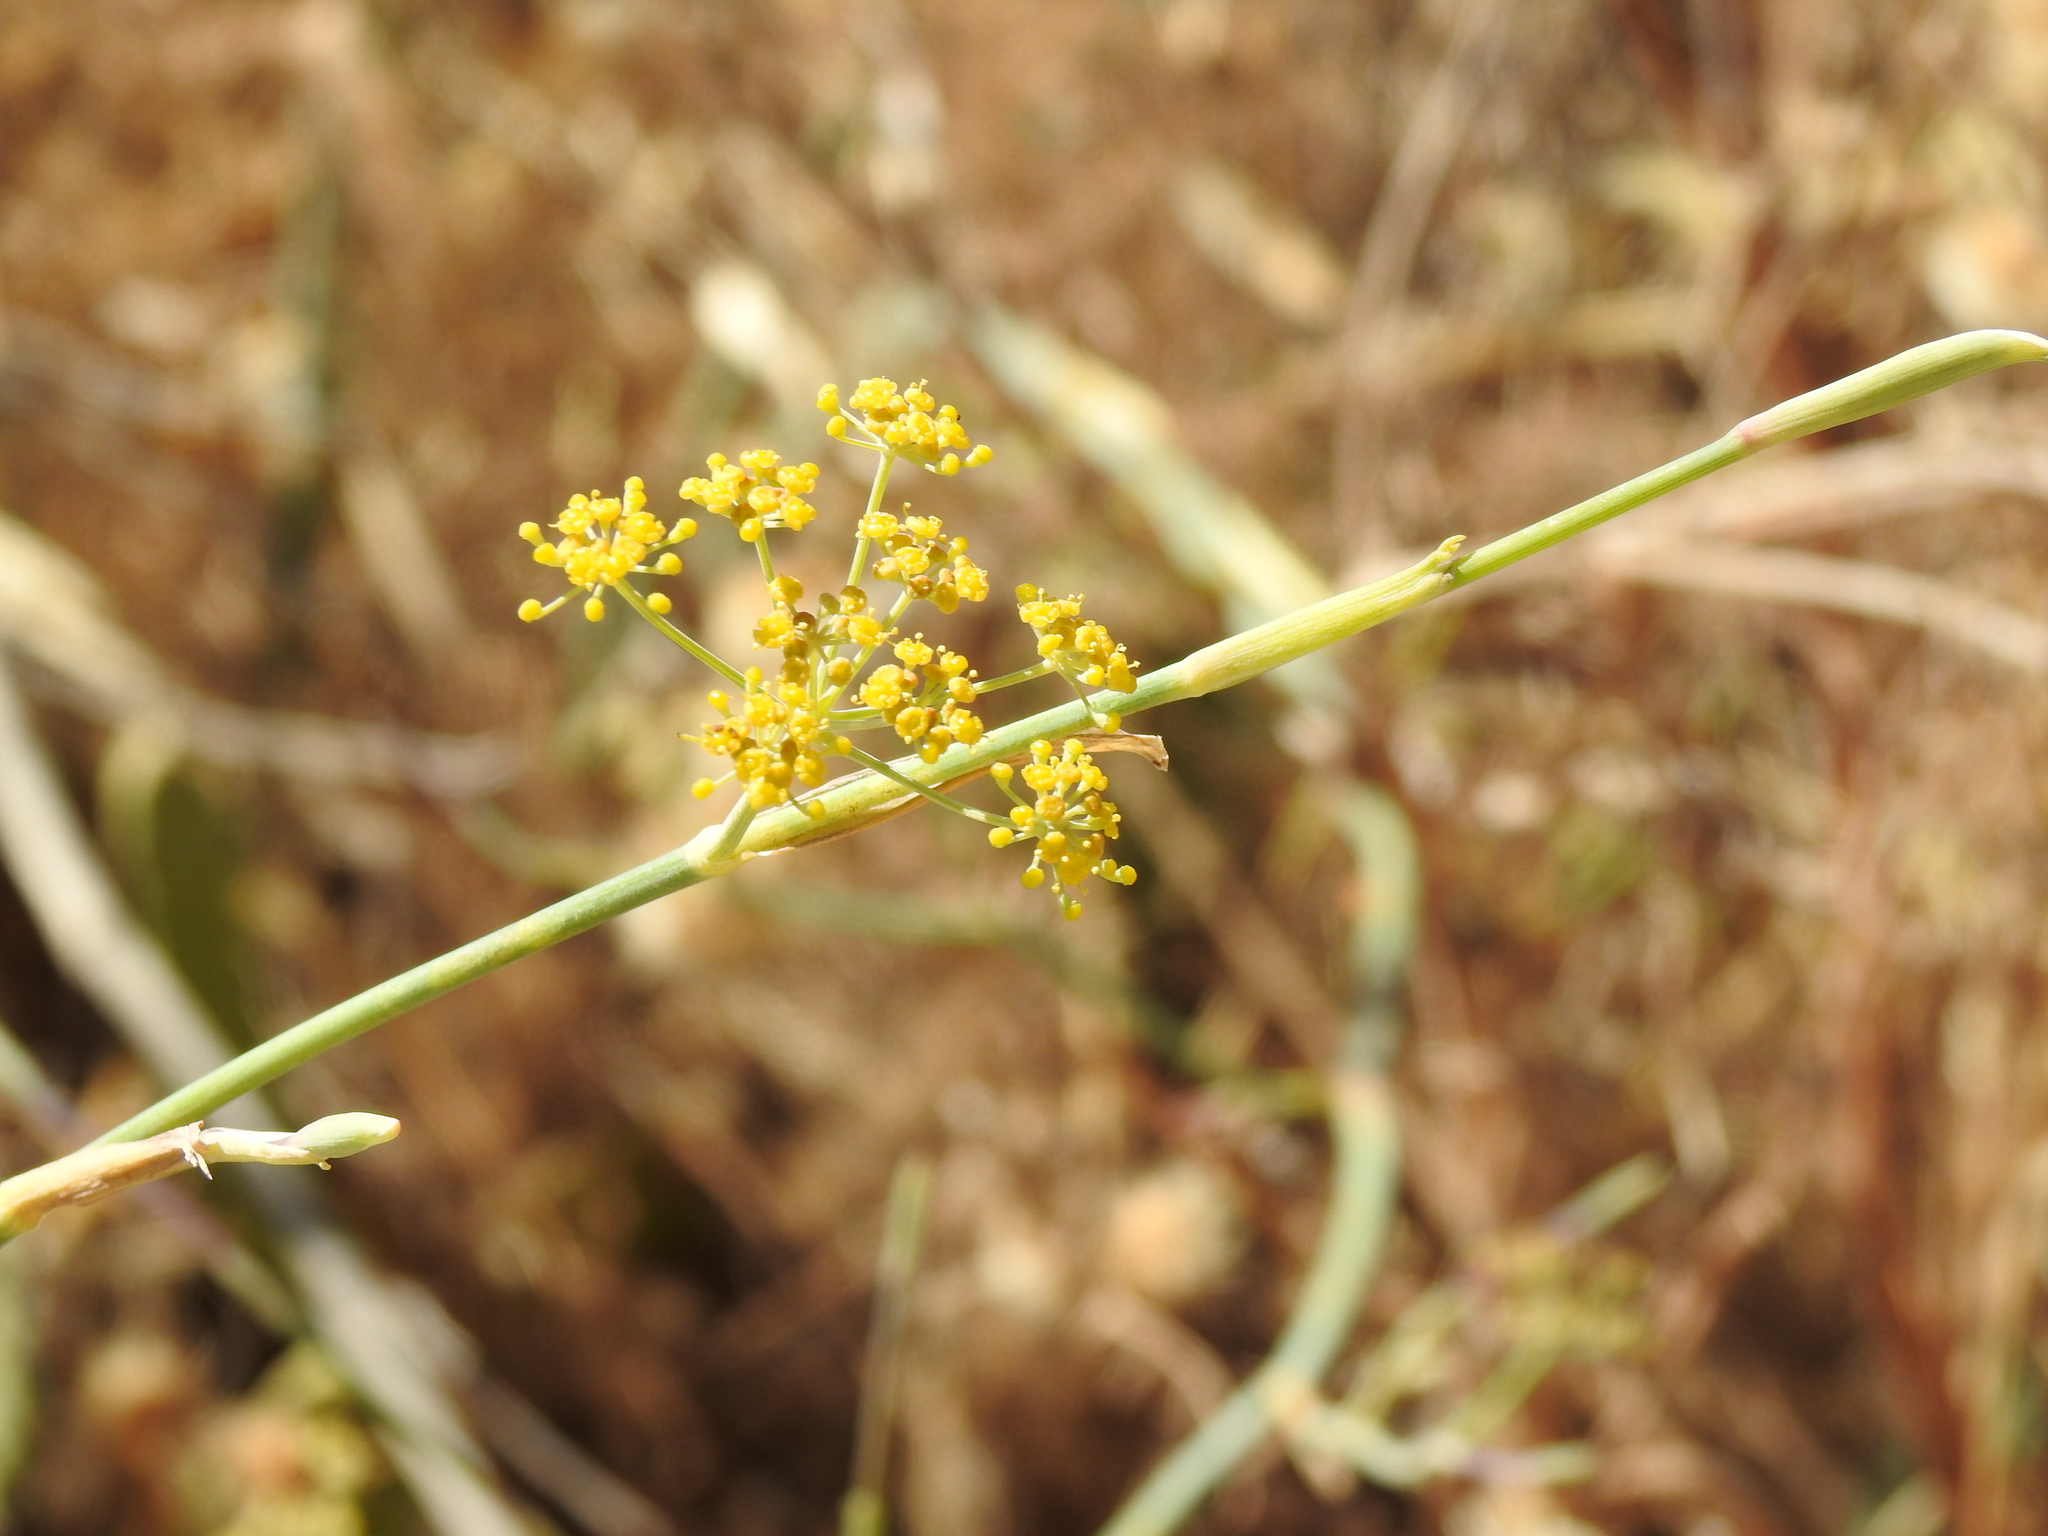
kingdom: Plantae
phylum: Tracheophyta
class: Magnoliopsida
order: Apiales
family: Apiaceae
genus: Foeniculum
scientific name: Foeniculum vulgare
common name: Fennel
